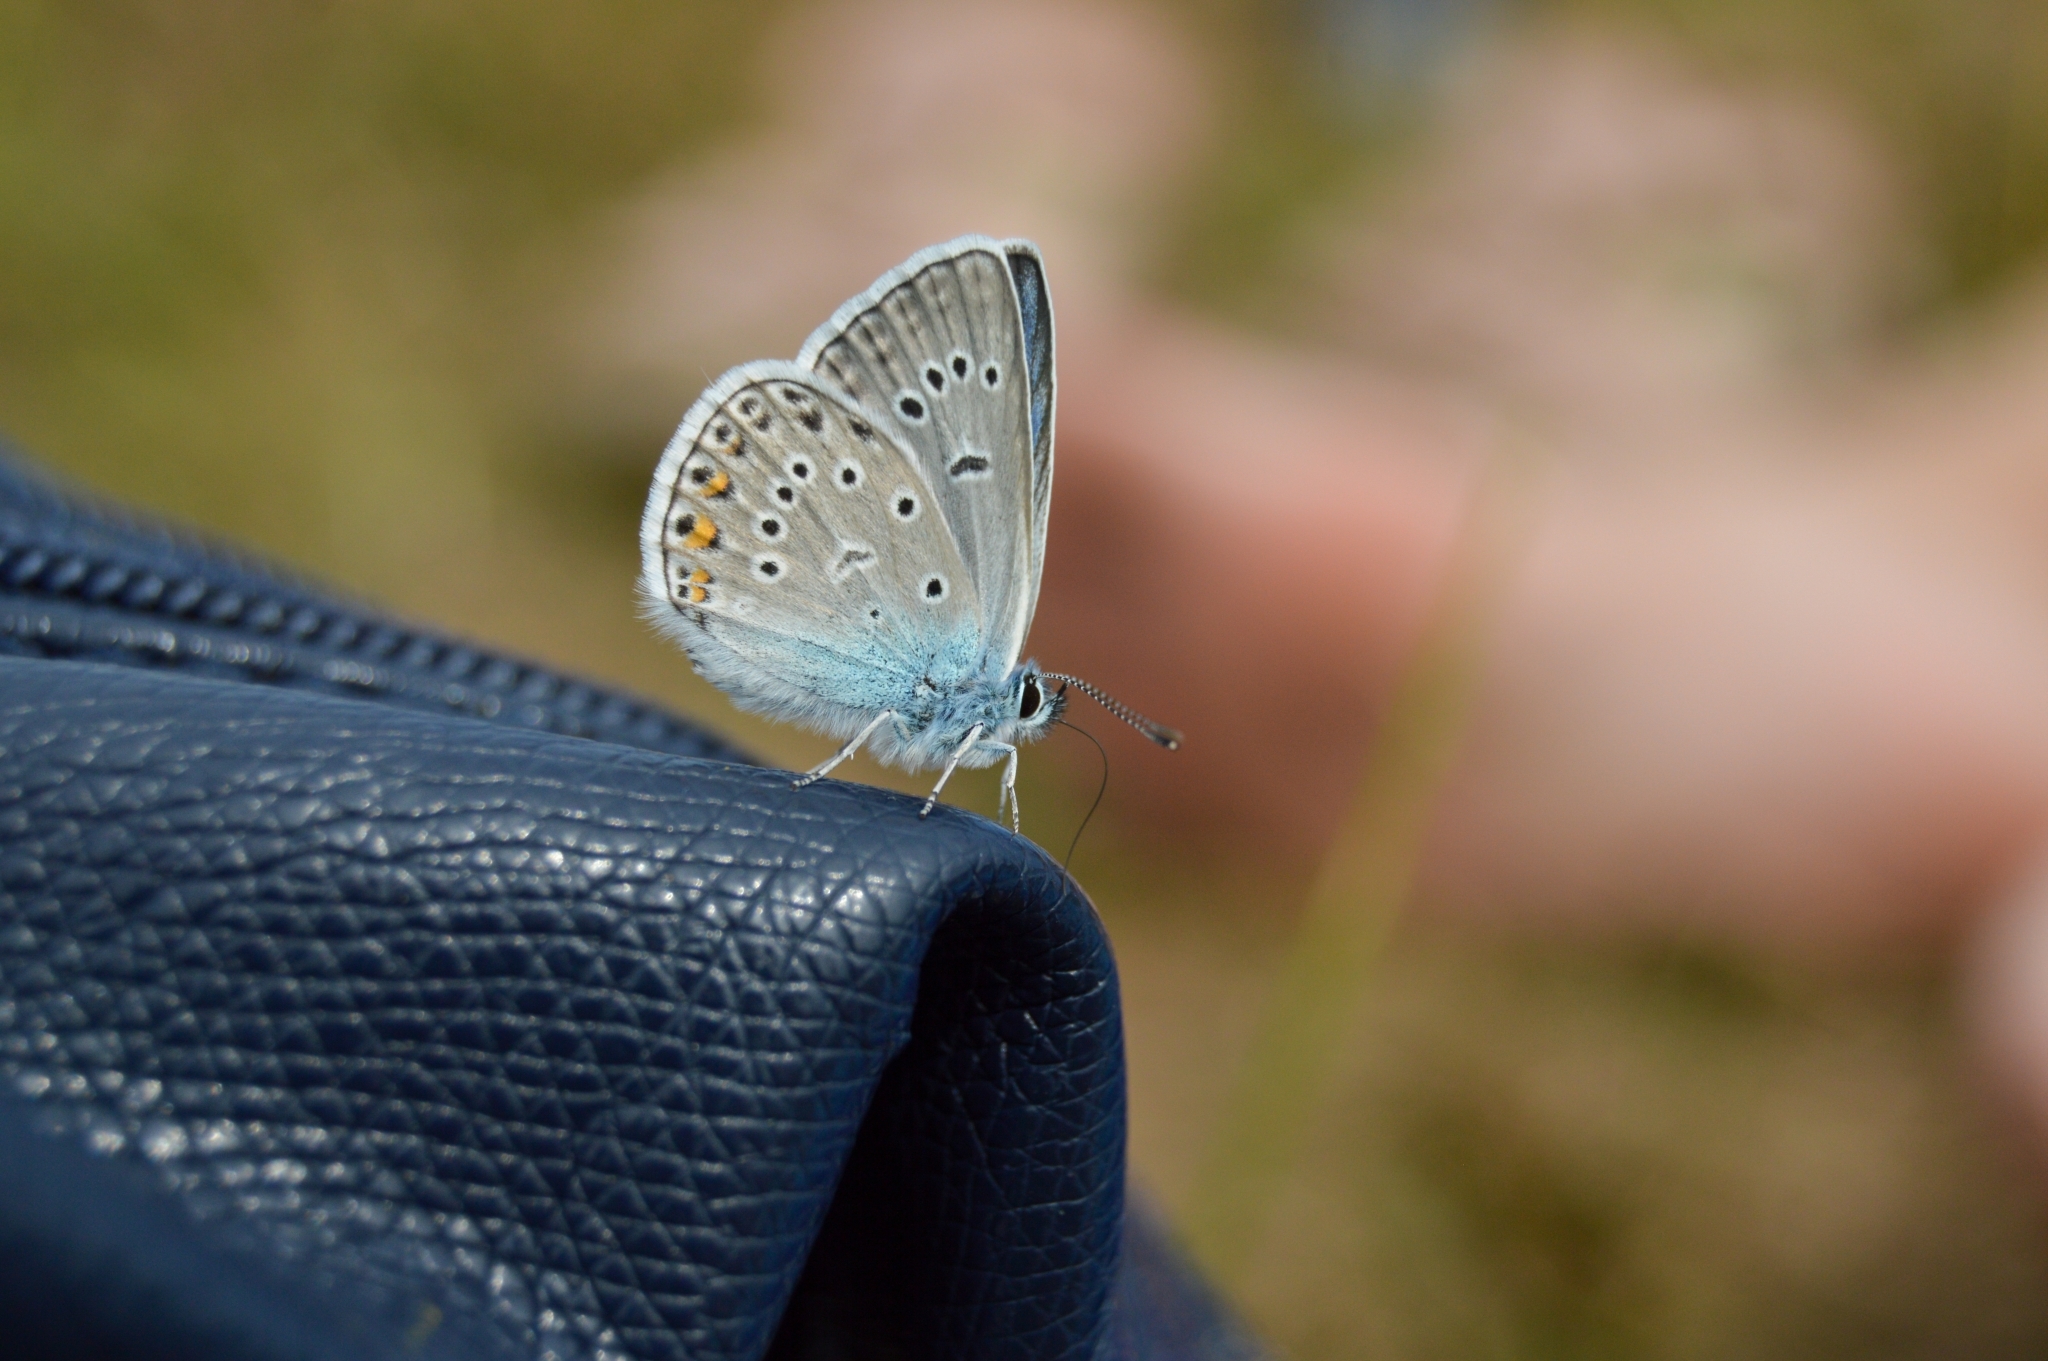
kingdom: Animalia
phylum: Arthropoda
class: Insecta
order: Lepidoptera
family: Lycaenidae
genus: Plebejus
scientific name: Plebejus amanda
